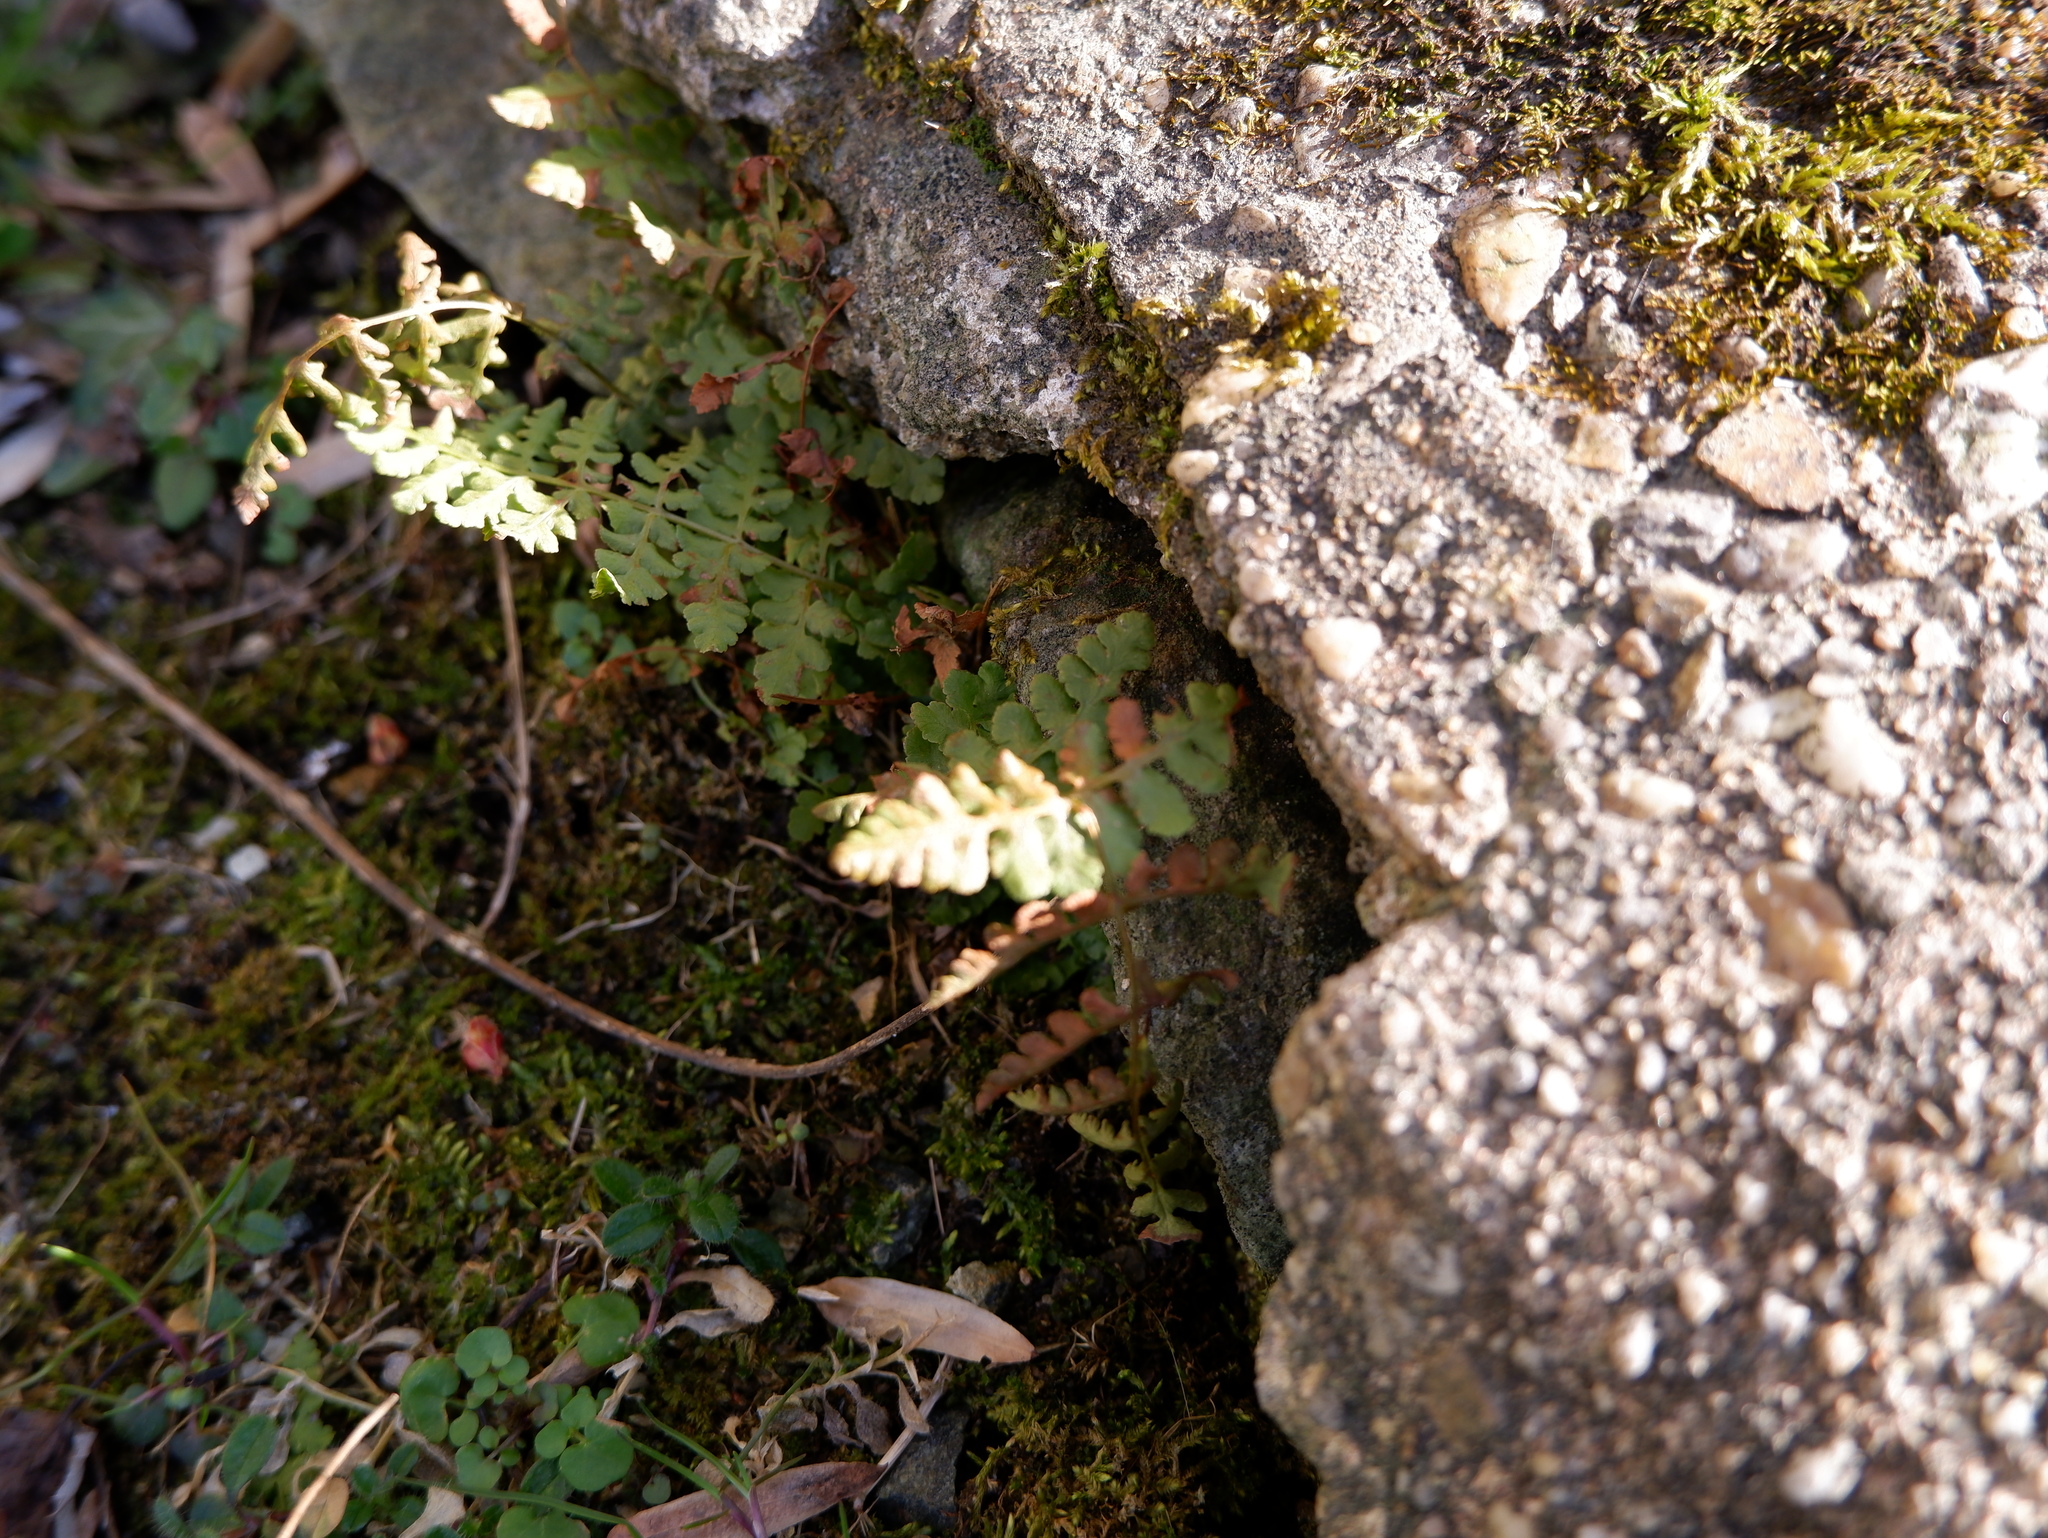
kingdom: Plantae
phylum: Tracheophyta
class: Polypodiopsida
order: Polypodiales
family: Woodsiaceae
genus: Physematium
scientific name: Physematium obtusum
